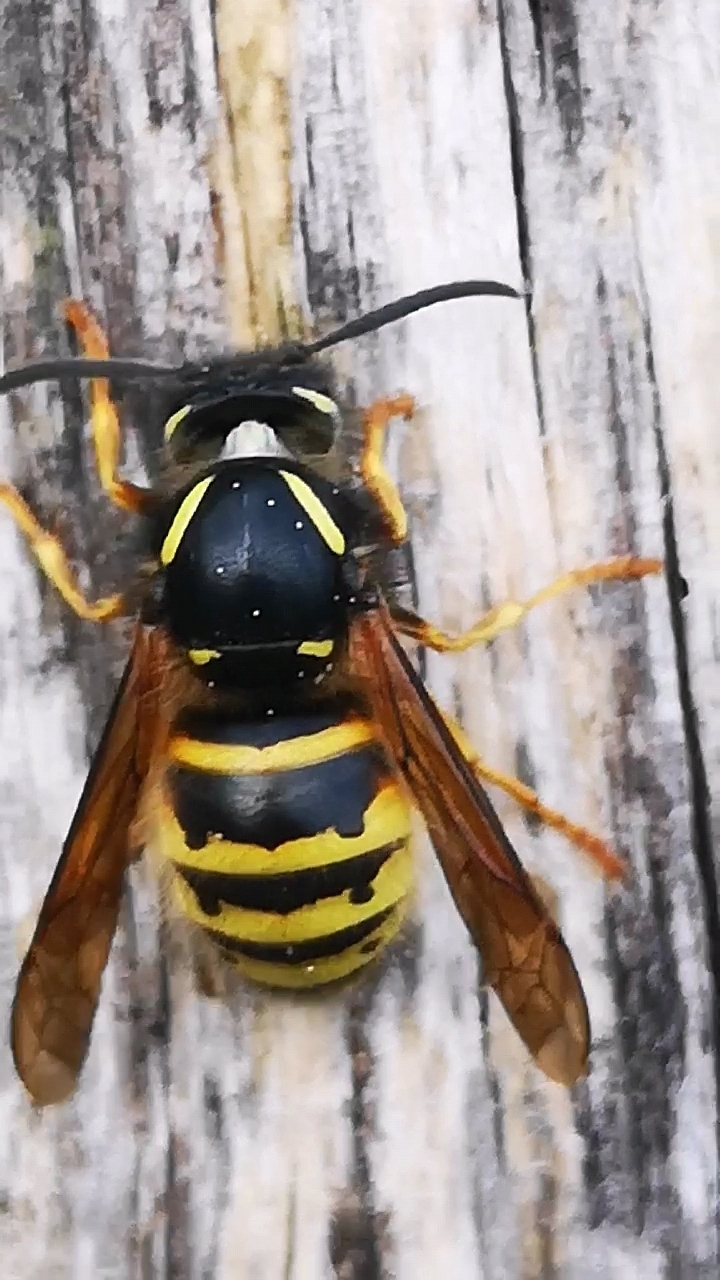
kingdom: Animalia
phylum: Arthropoda
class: Insecta
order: Hymenoptera
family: Vespidae
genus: Dolichovespula
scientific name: Dolichovespula norwegica
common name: Norwegian wasp
